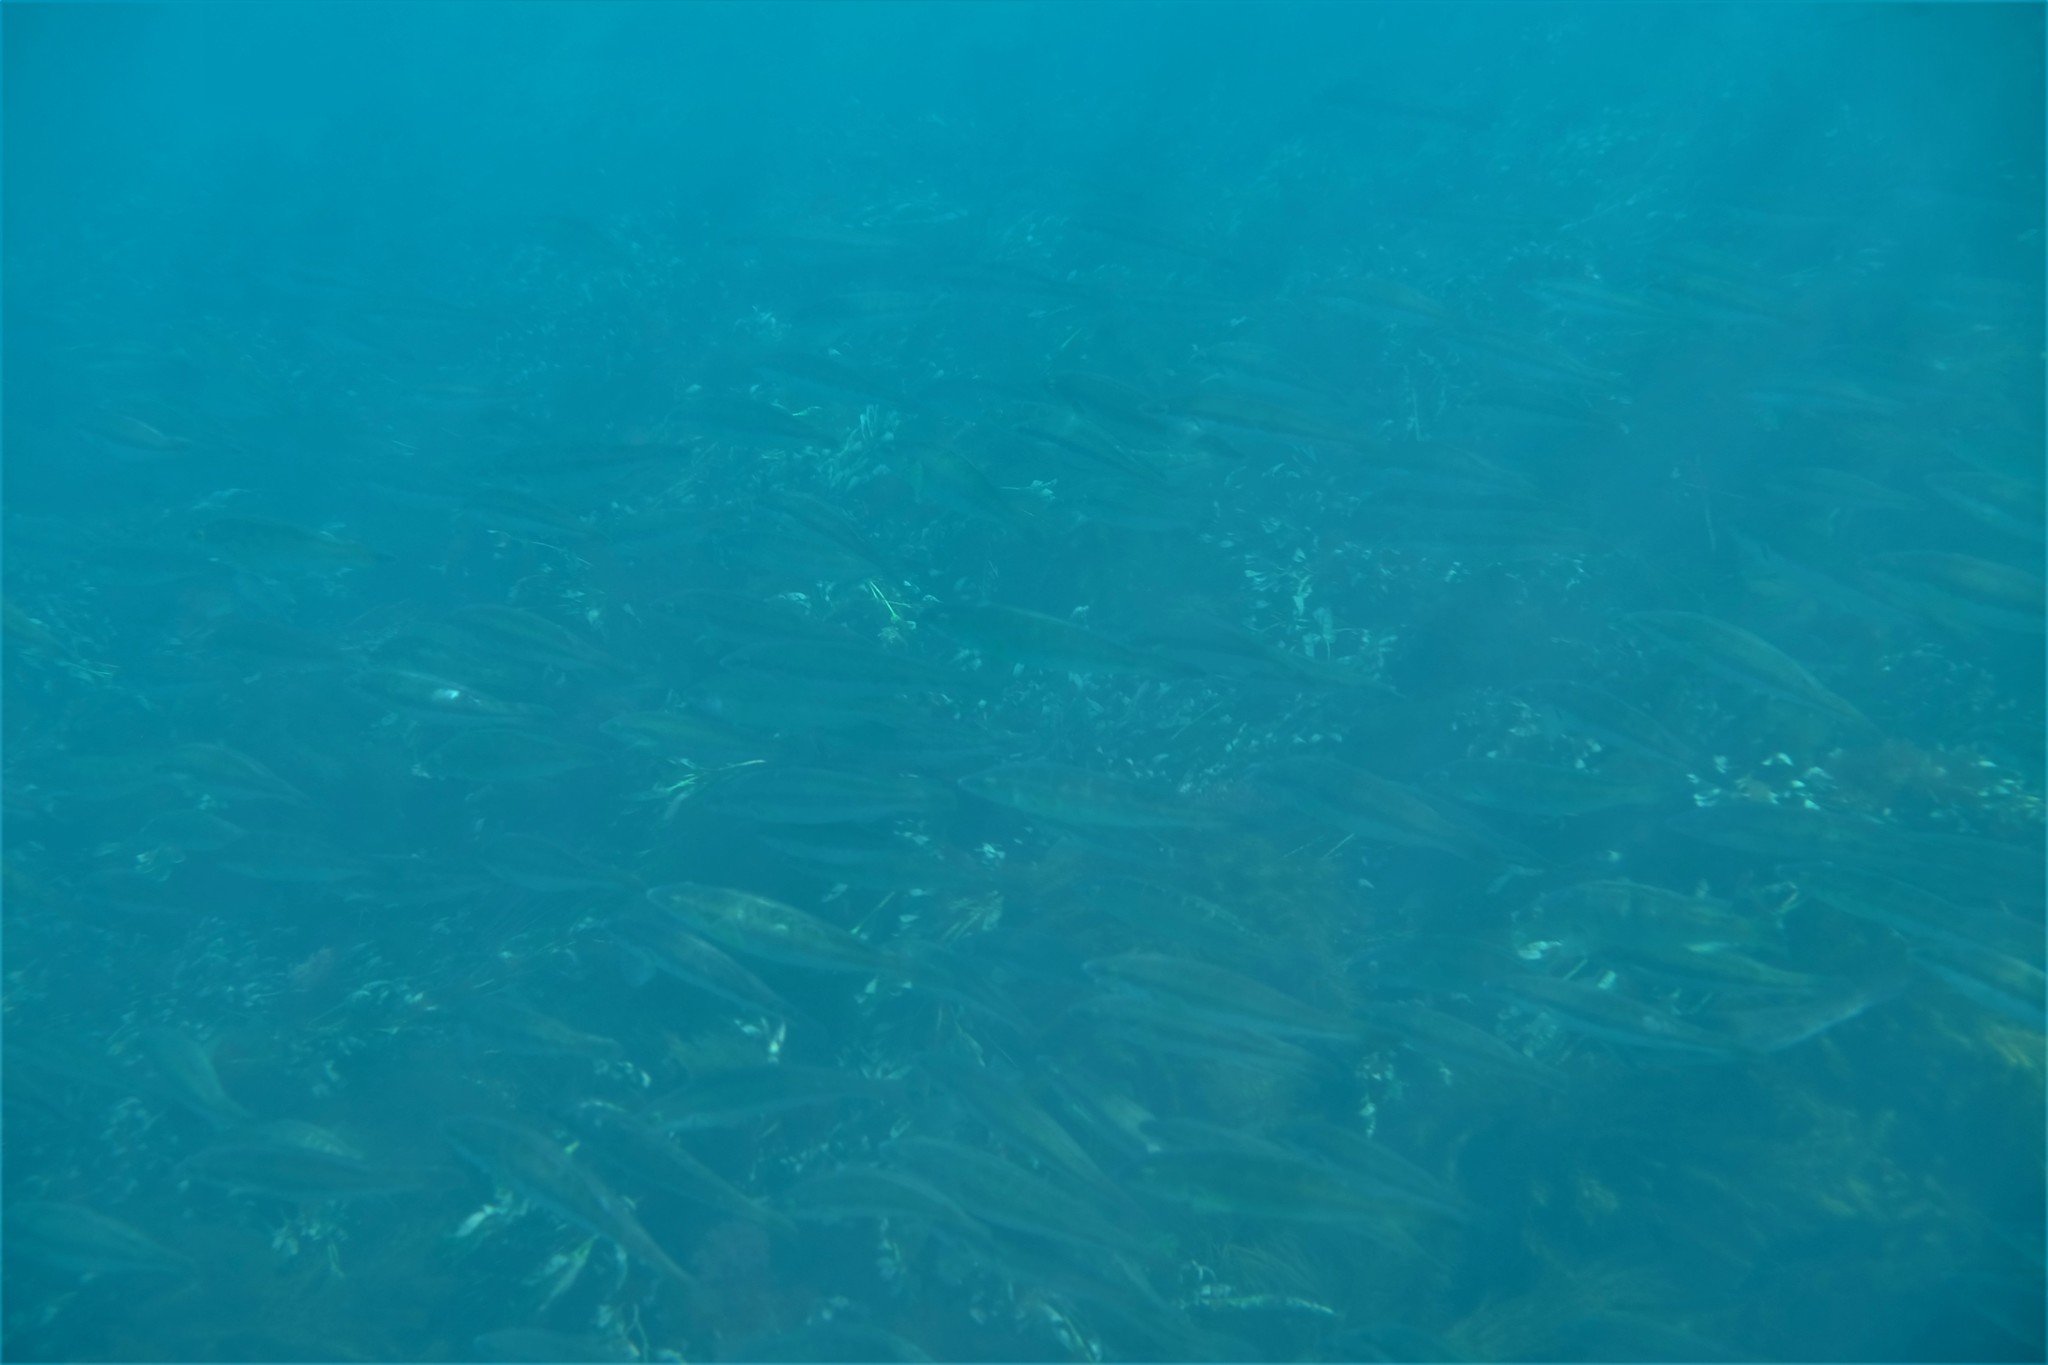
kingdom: Animalia
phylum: Chordata
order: Perciformes
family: Odacidae
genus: Haletta
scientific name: Haletta semifasciata
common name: Blue rock whiting
